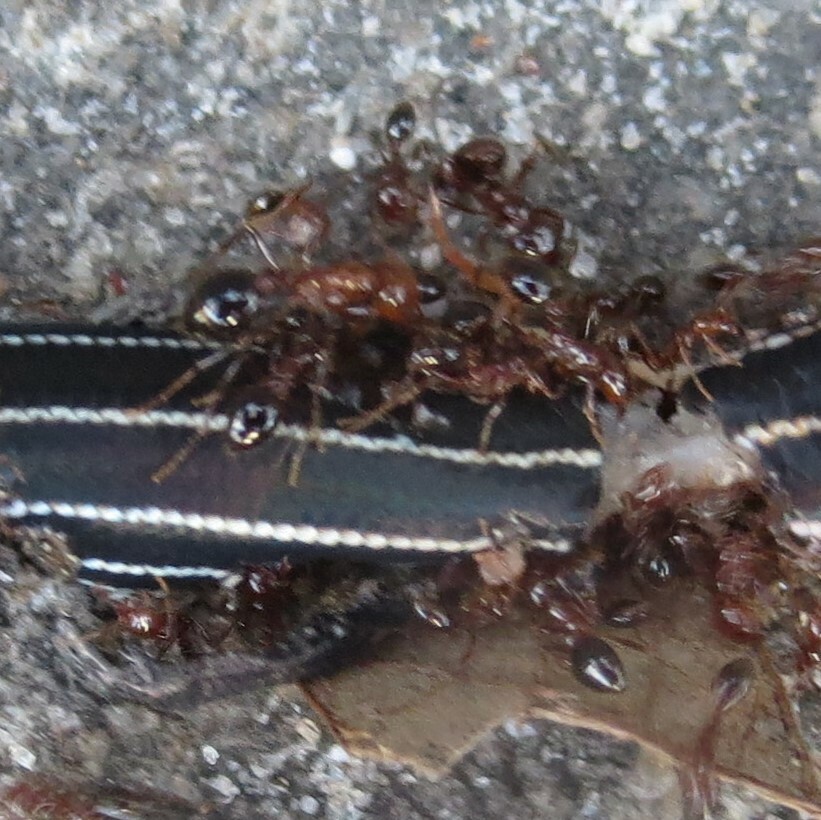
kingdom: Animalia
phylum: Arthropoda
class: Insecta
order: Hymenoptera
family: Formicidae
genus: Solenopsis
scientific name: Solenopsis invicta
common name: Red imported fire ant
